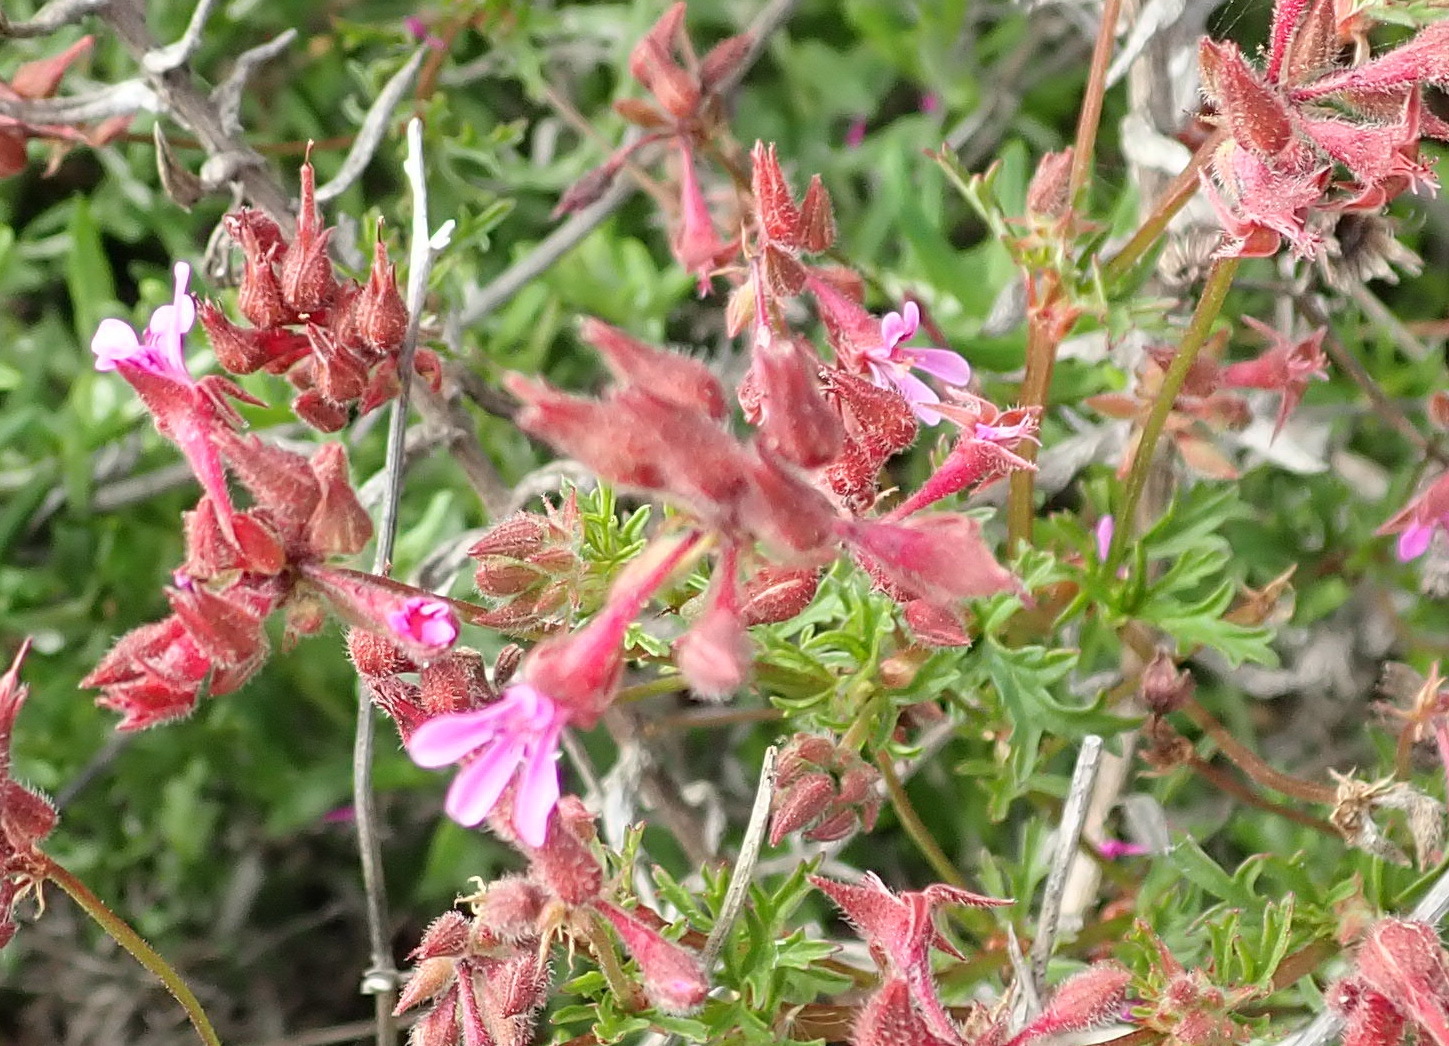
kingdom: Plantae
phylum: Tracheophyta
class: Magnoliopsida
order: Geraniales
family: Geraniaceae
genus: Pelargonium
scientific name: Pelargonium grossularioides
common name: Gooseberry geranium
